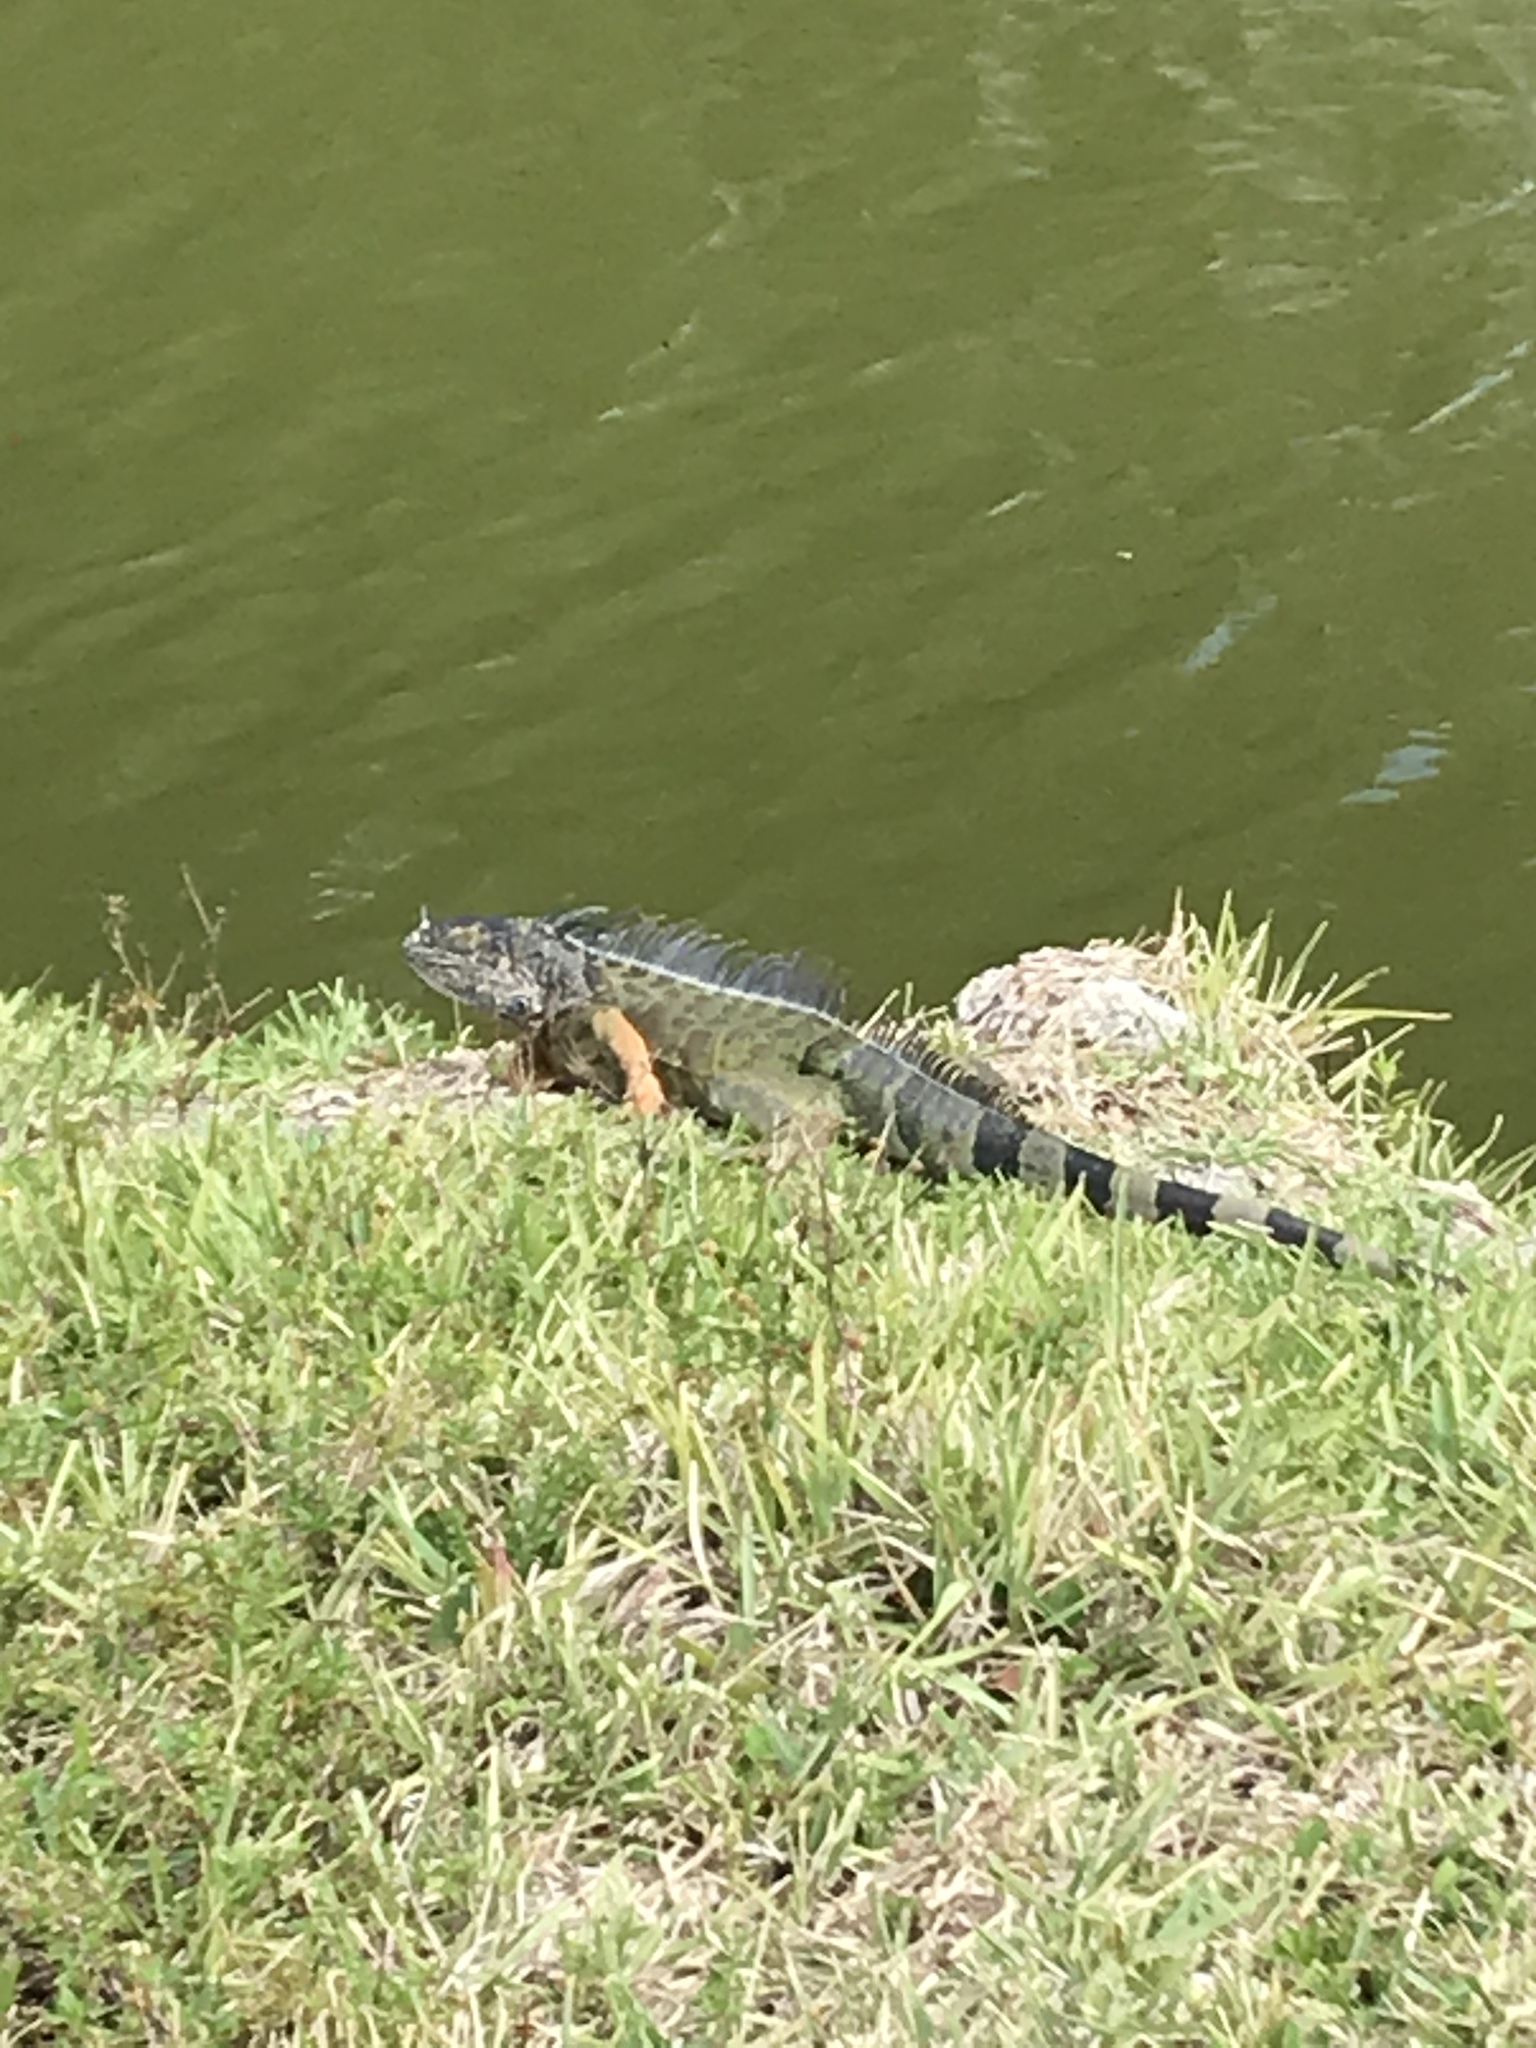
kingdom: Animalia
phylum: Chordata
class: Squamata
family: Iguanidae
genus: Iguana
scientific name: Iguana iguana
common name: Green iguana
